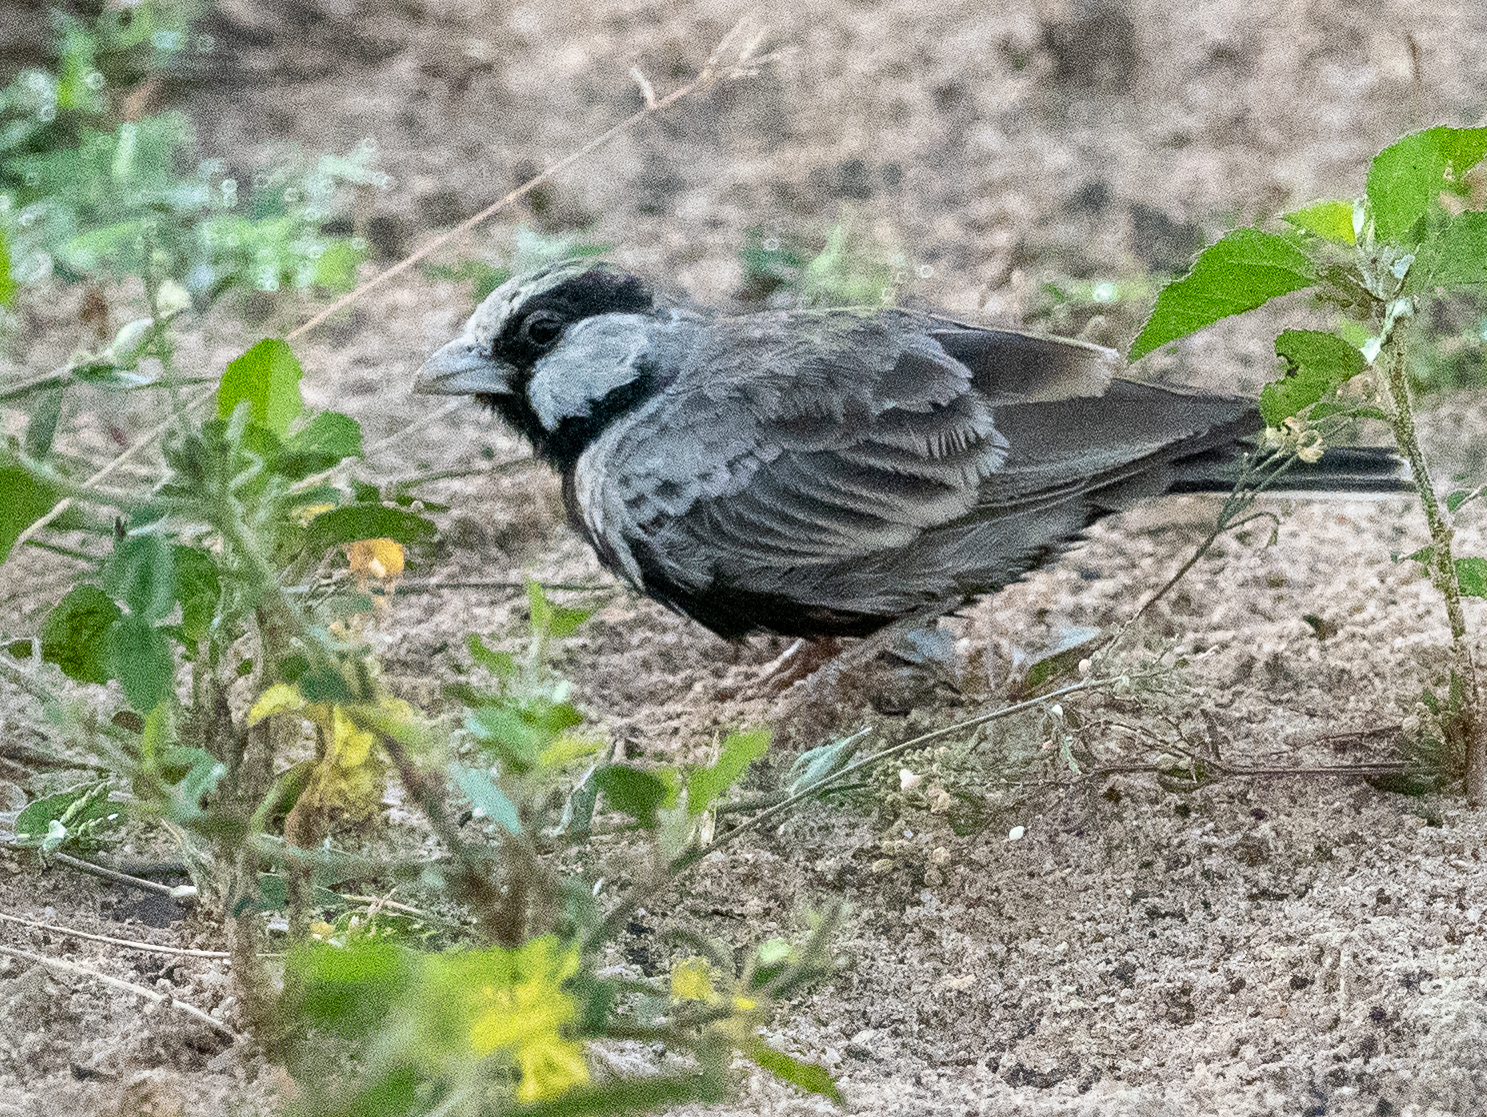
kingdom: Animalia
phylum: Chordata
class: Aves
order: Passeriformes
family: Alaudidae
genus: Eremopterix
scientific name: Eremopterix griseus
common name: Ashy-crowned sparrow-lark
